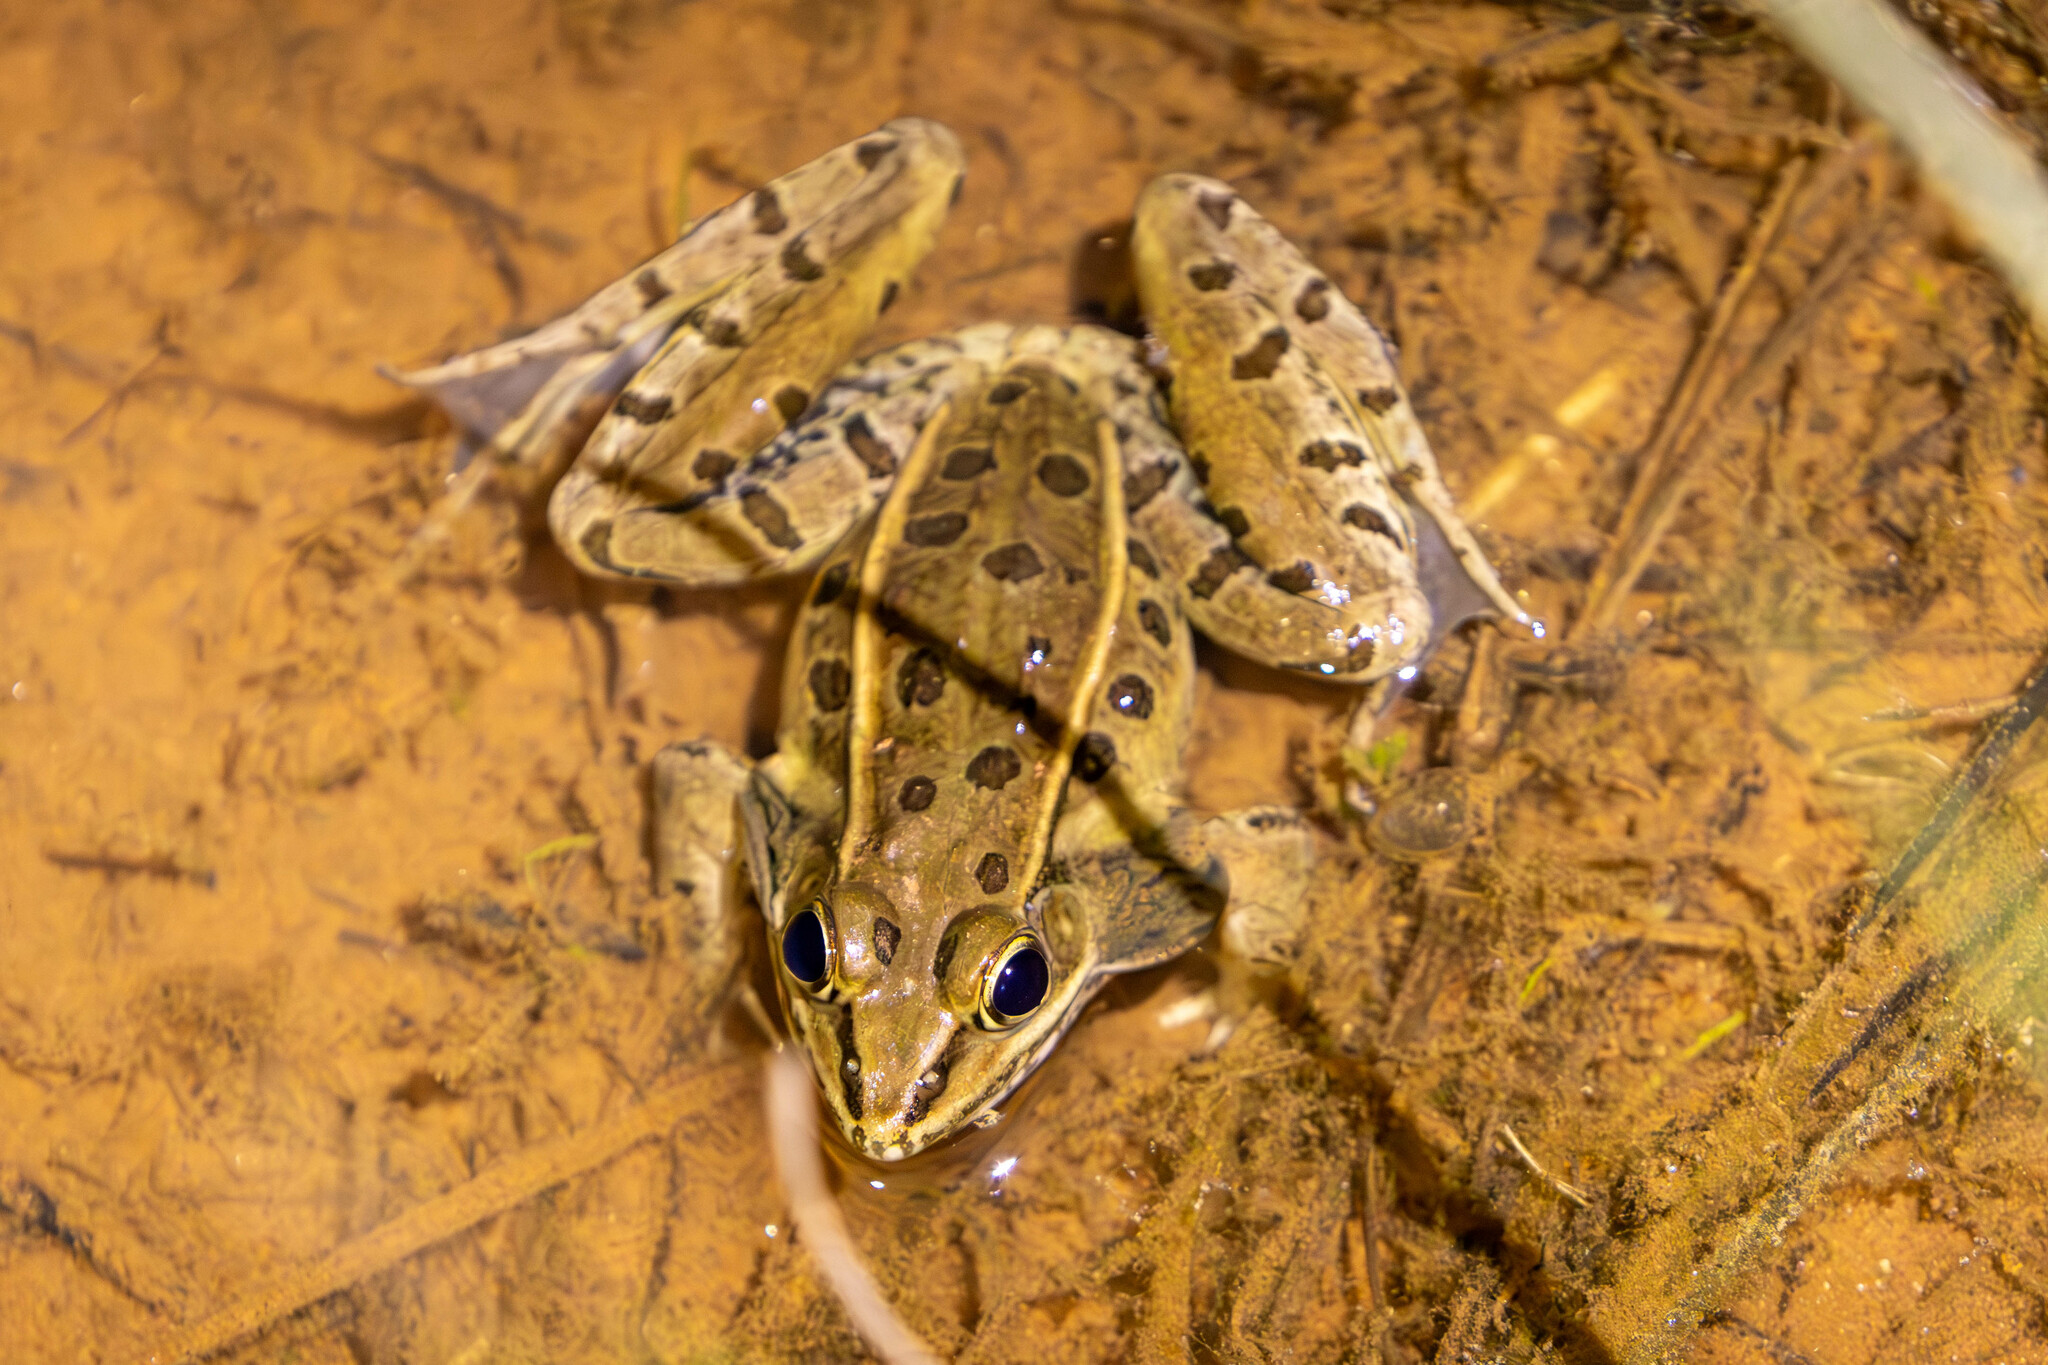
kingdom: Animalia
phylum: Chordata
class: Amphibia
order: Anura
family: Ranidae
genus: Lithobates
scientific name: Lithobates sphenocephalus
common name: Southern leopard frog
